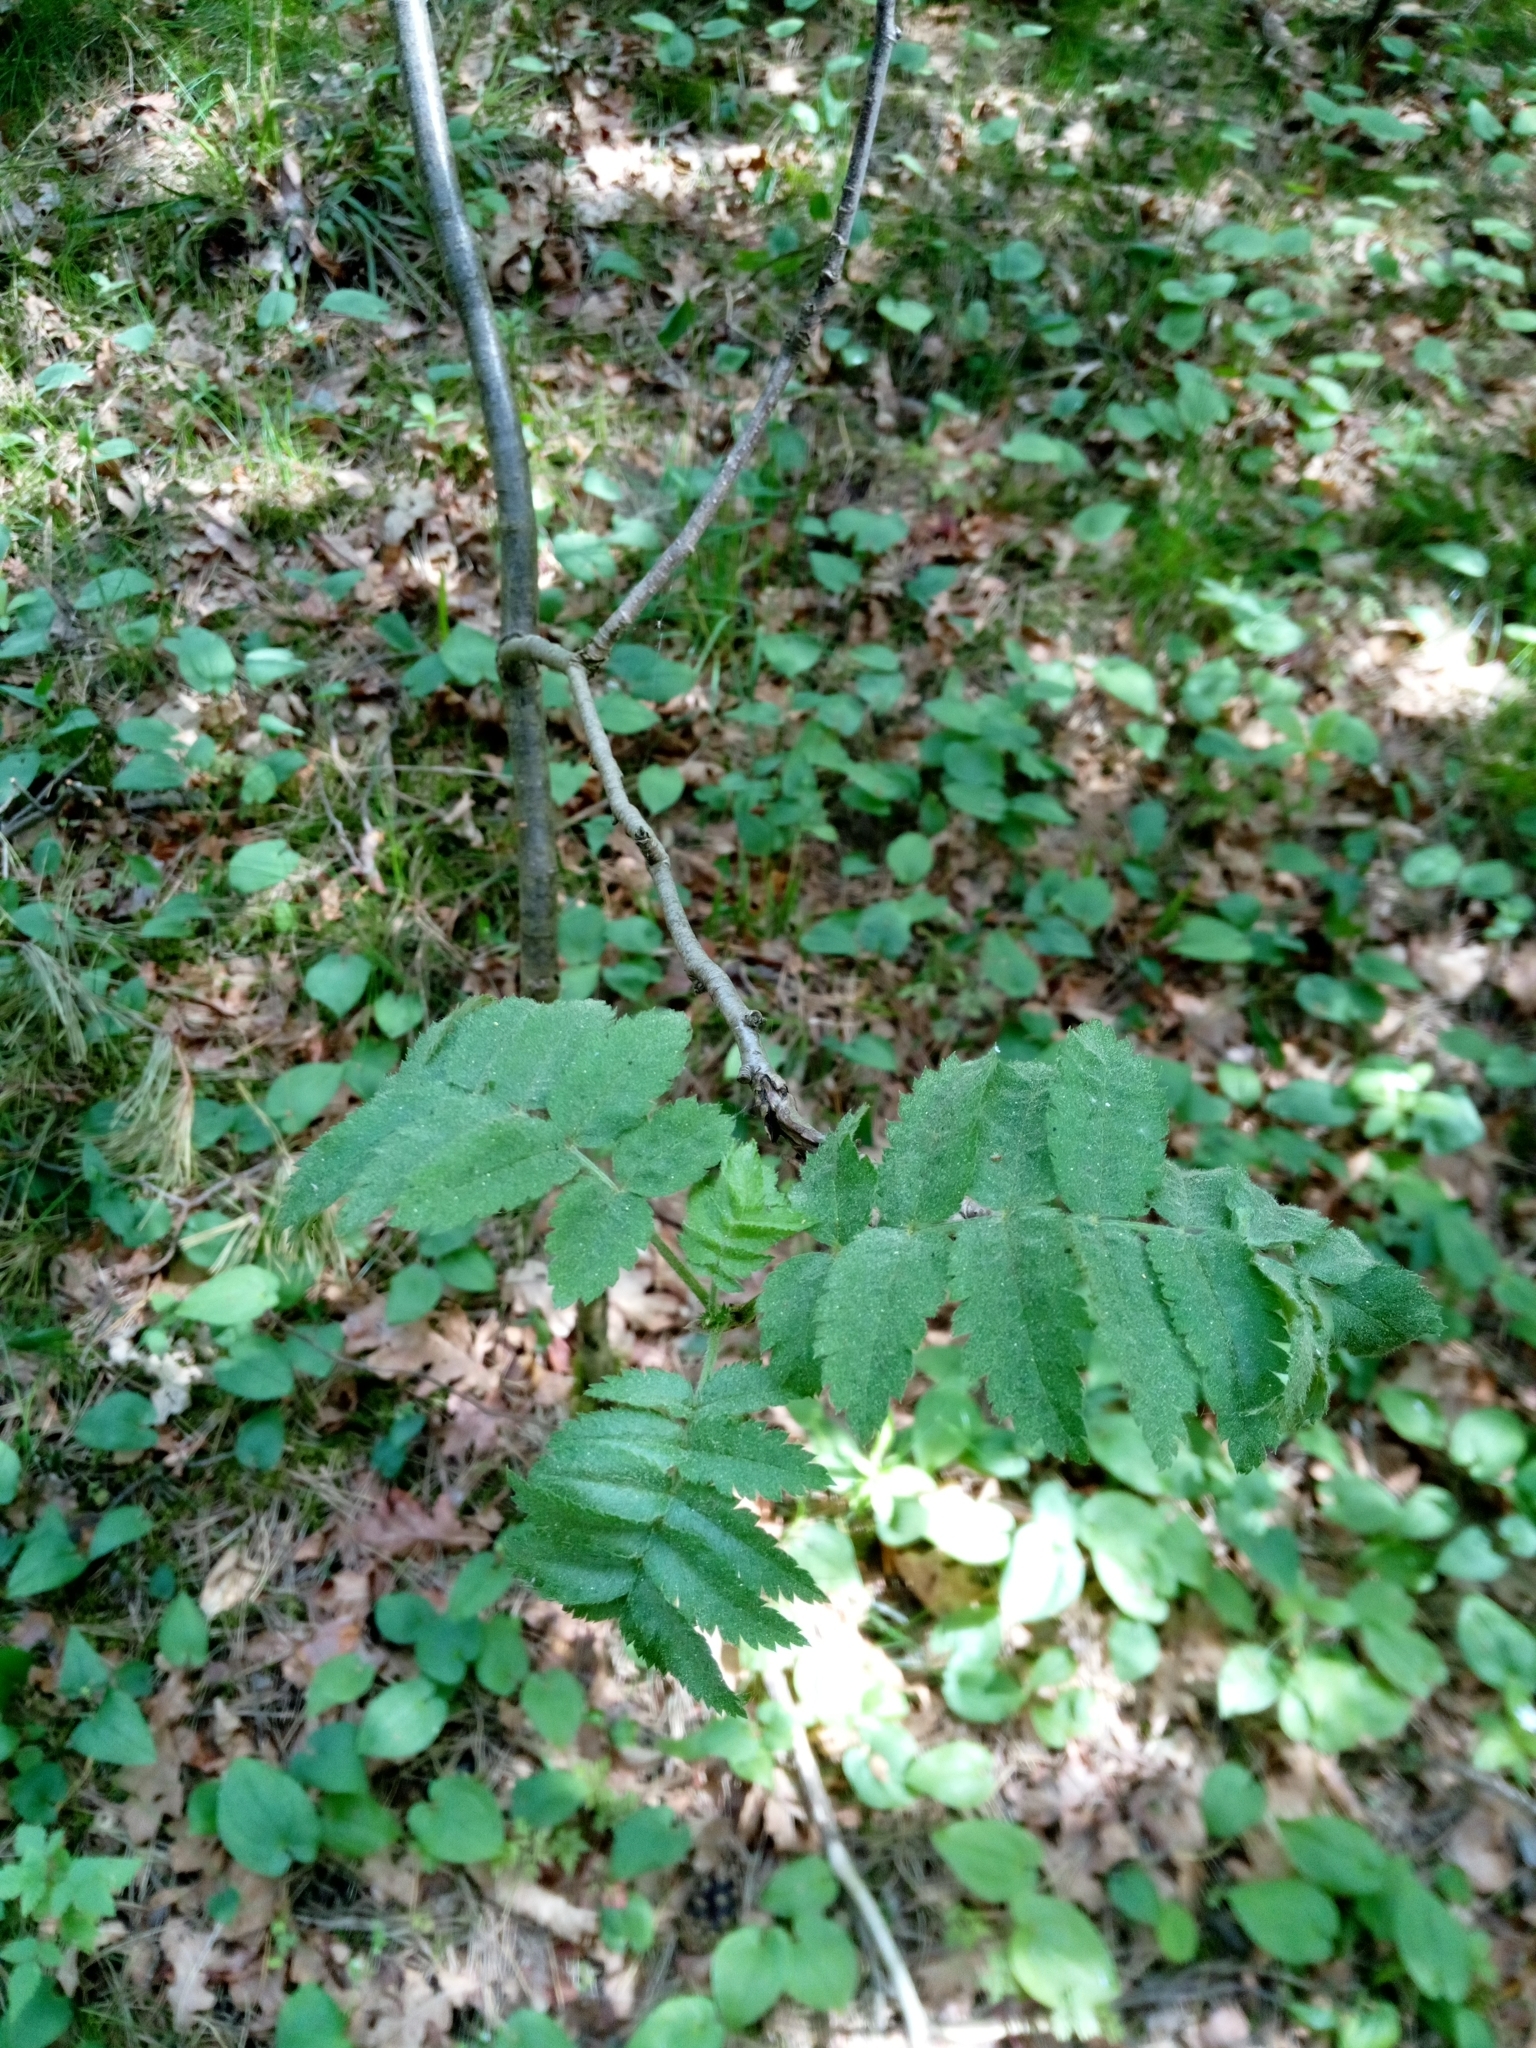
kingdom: Plantae
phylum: Tracheophyta
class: Magnoliopsida
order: Rosales
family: Rosaceae
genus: Sorbus
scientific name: Sorbus aucuparia
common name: Rowan
